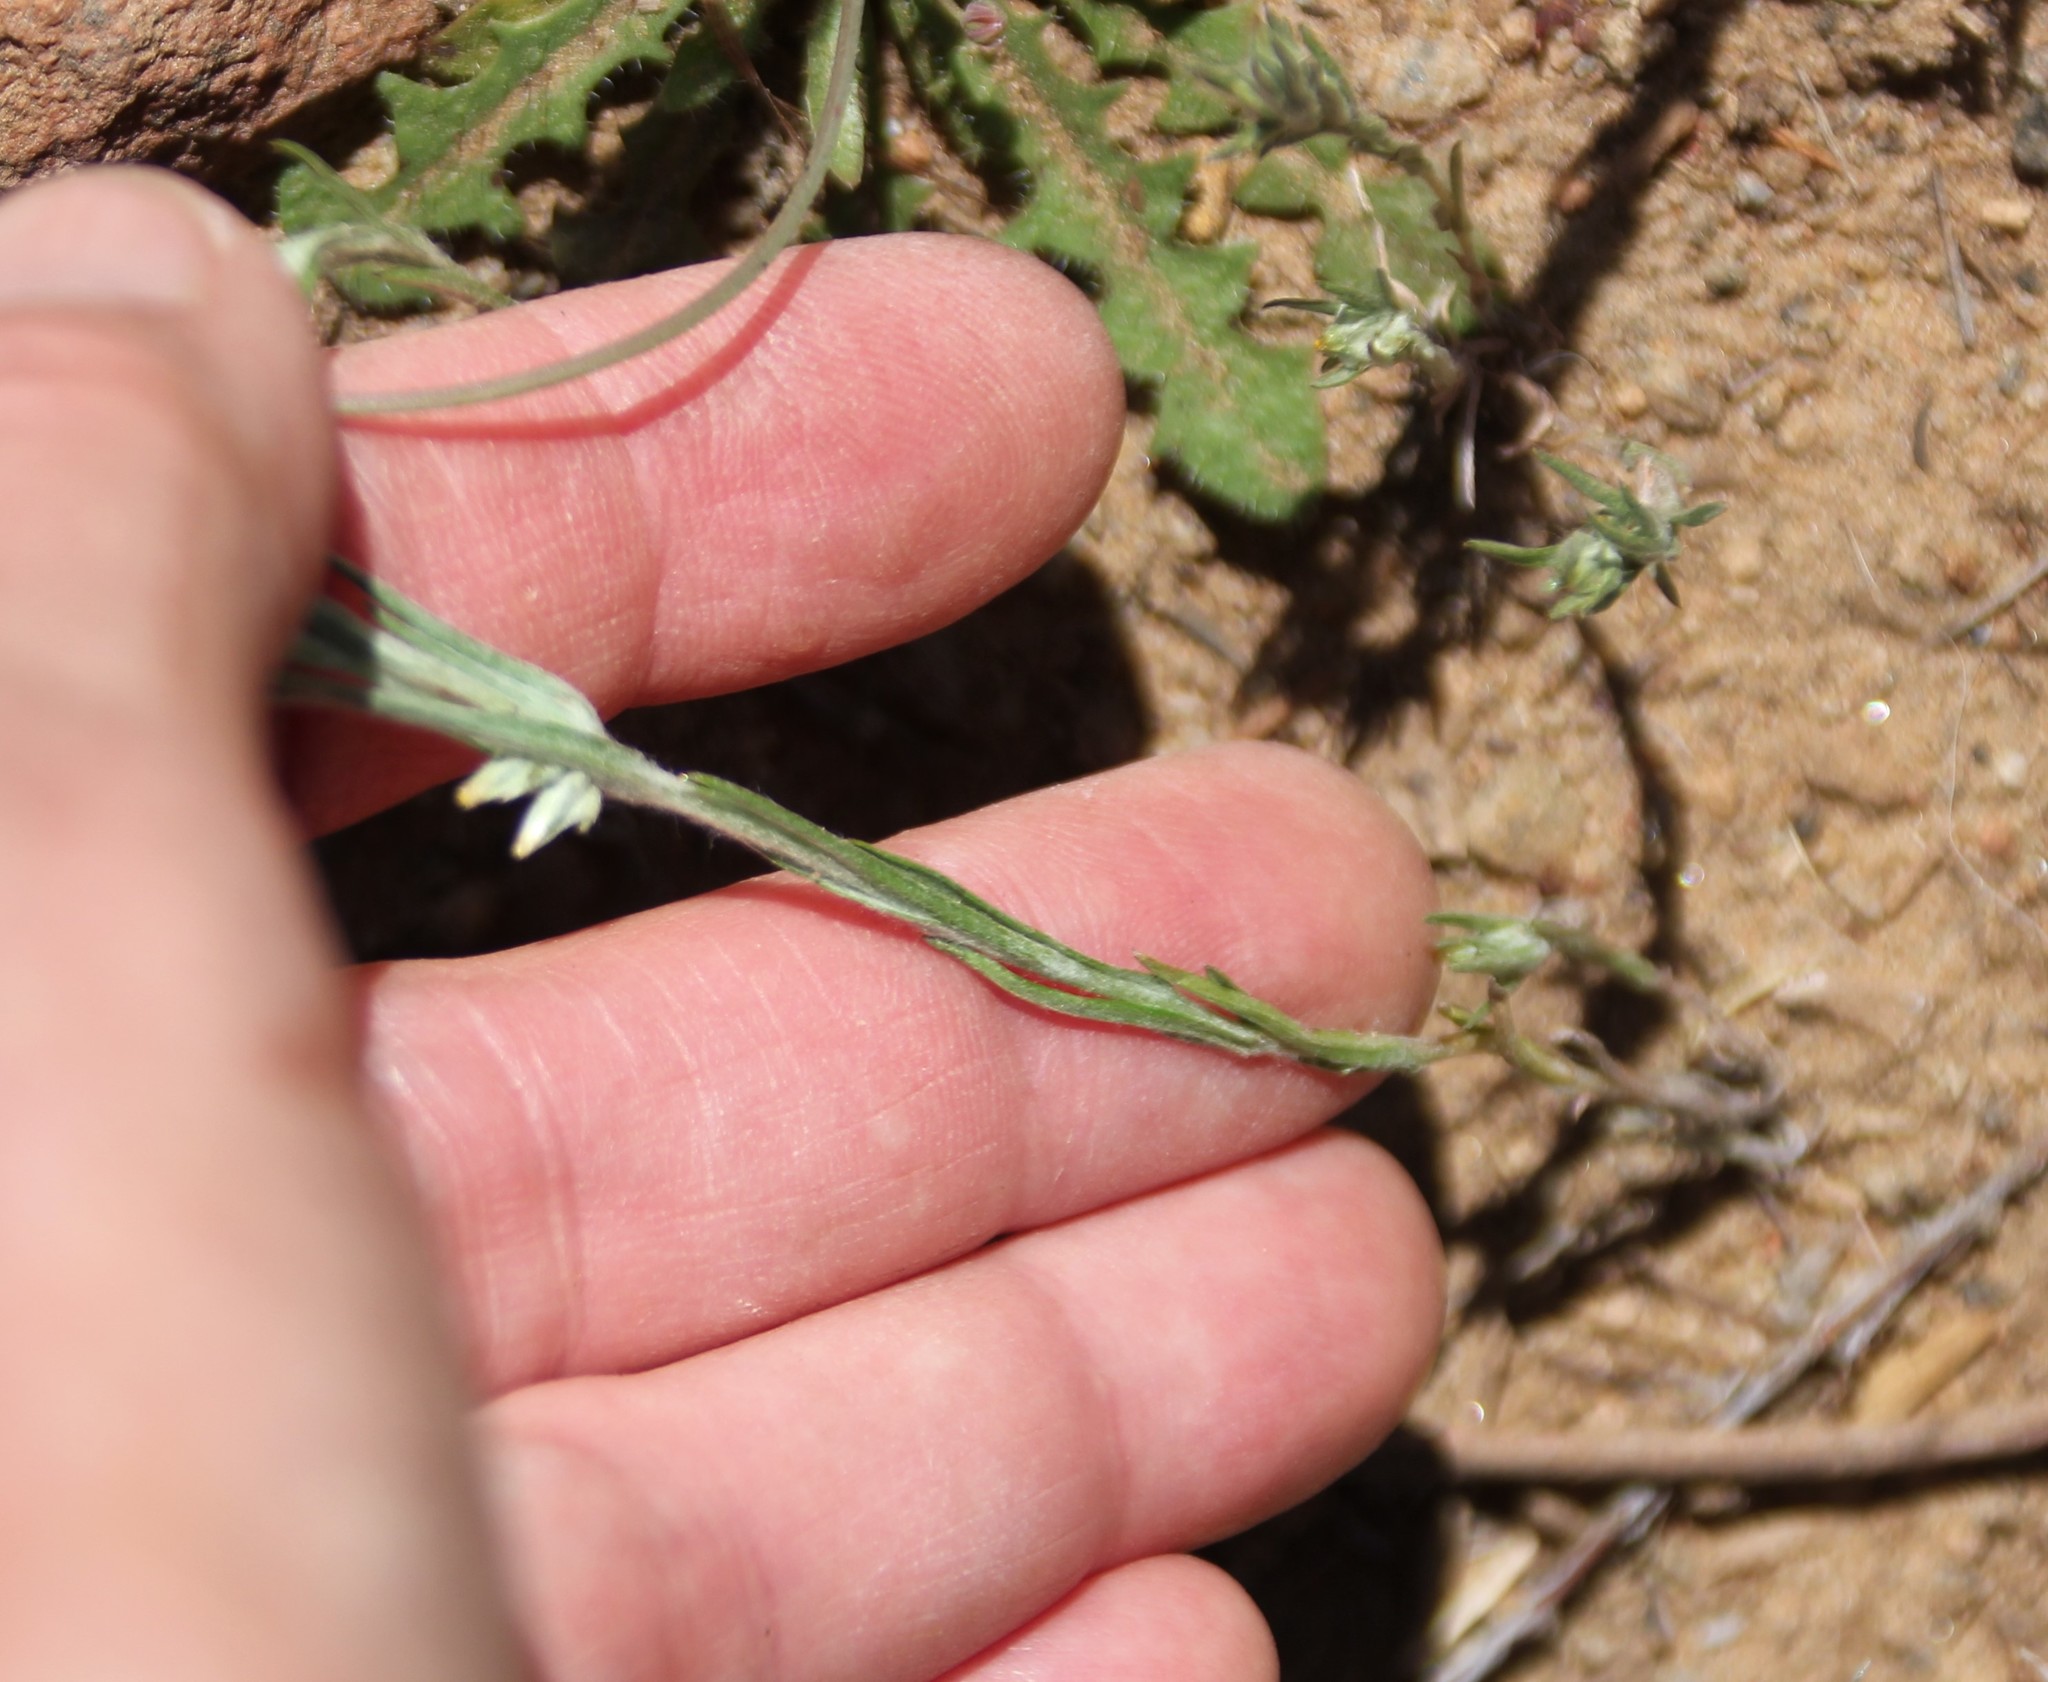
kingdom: Plantae
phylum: Tracheophyta
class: Magnoliopsida
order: Asterales
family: Asteraceae
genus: Logfia
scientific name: Logfia gallica
